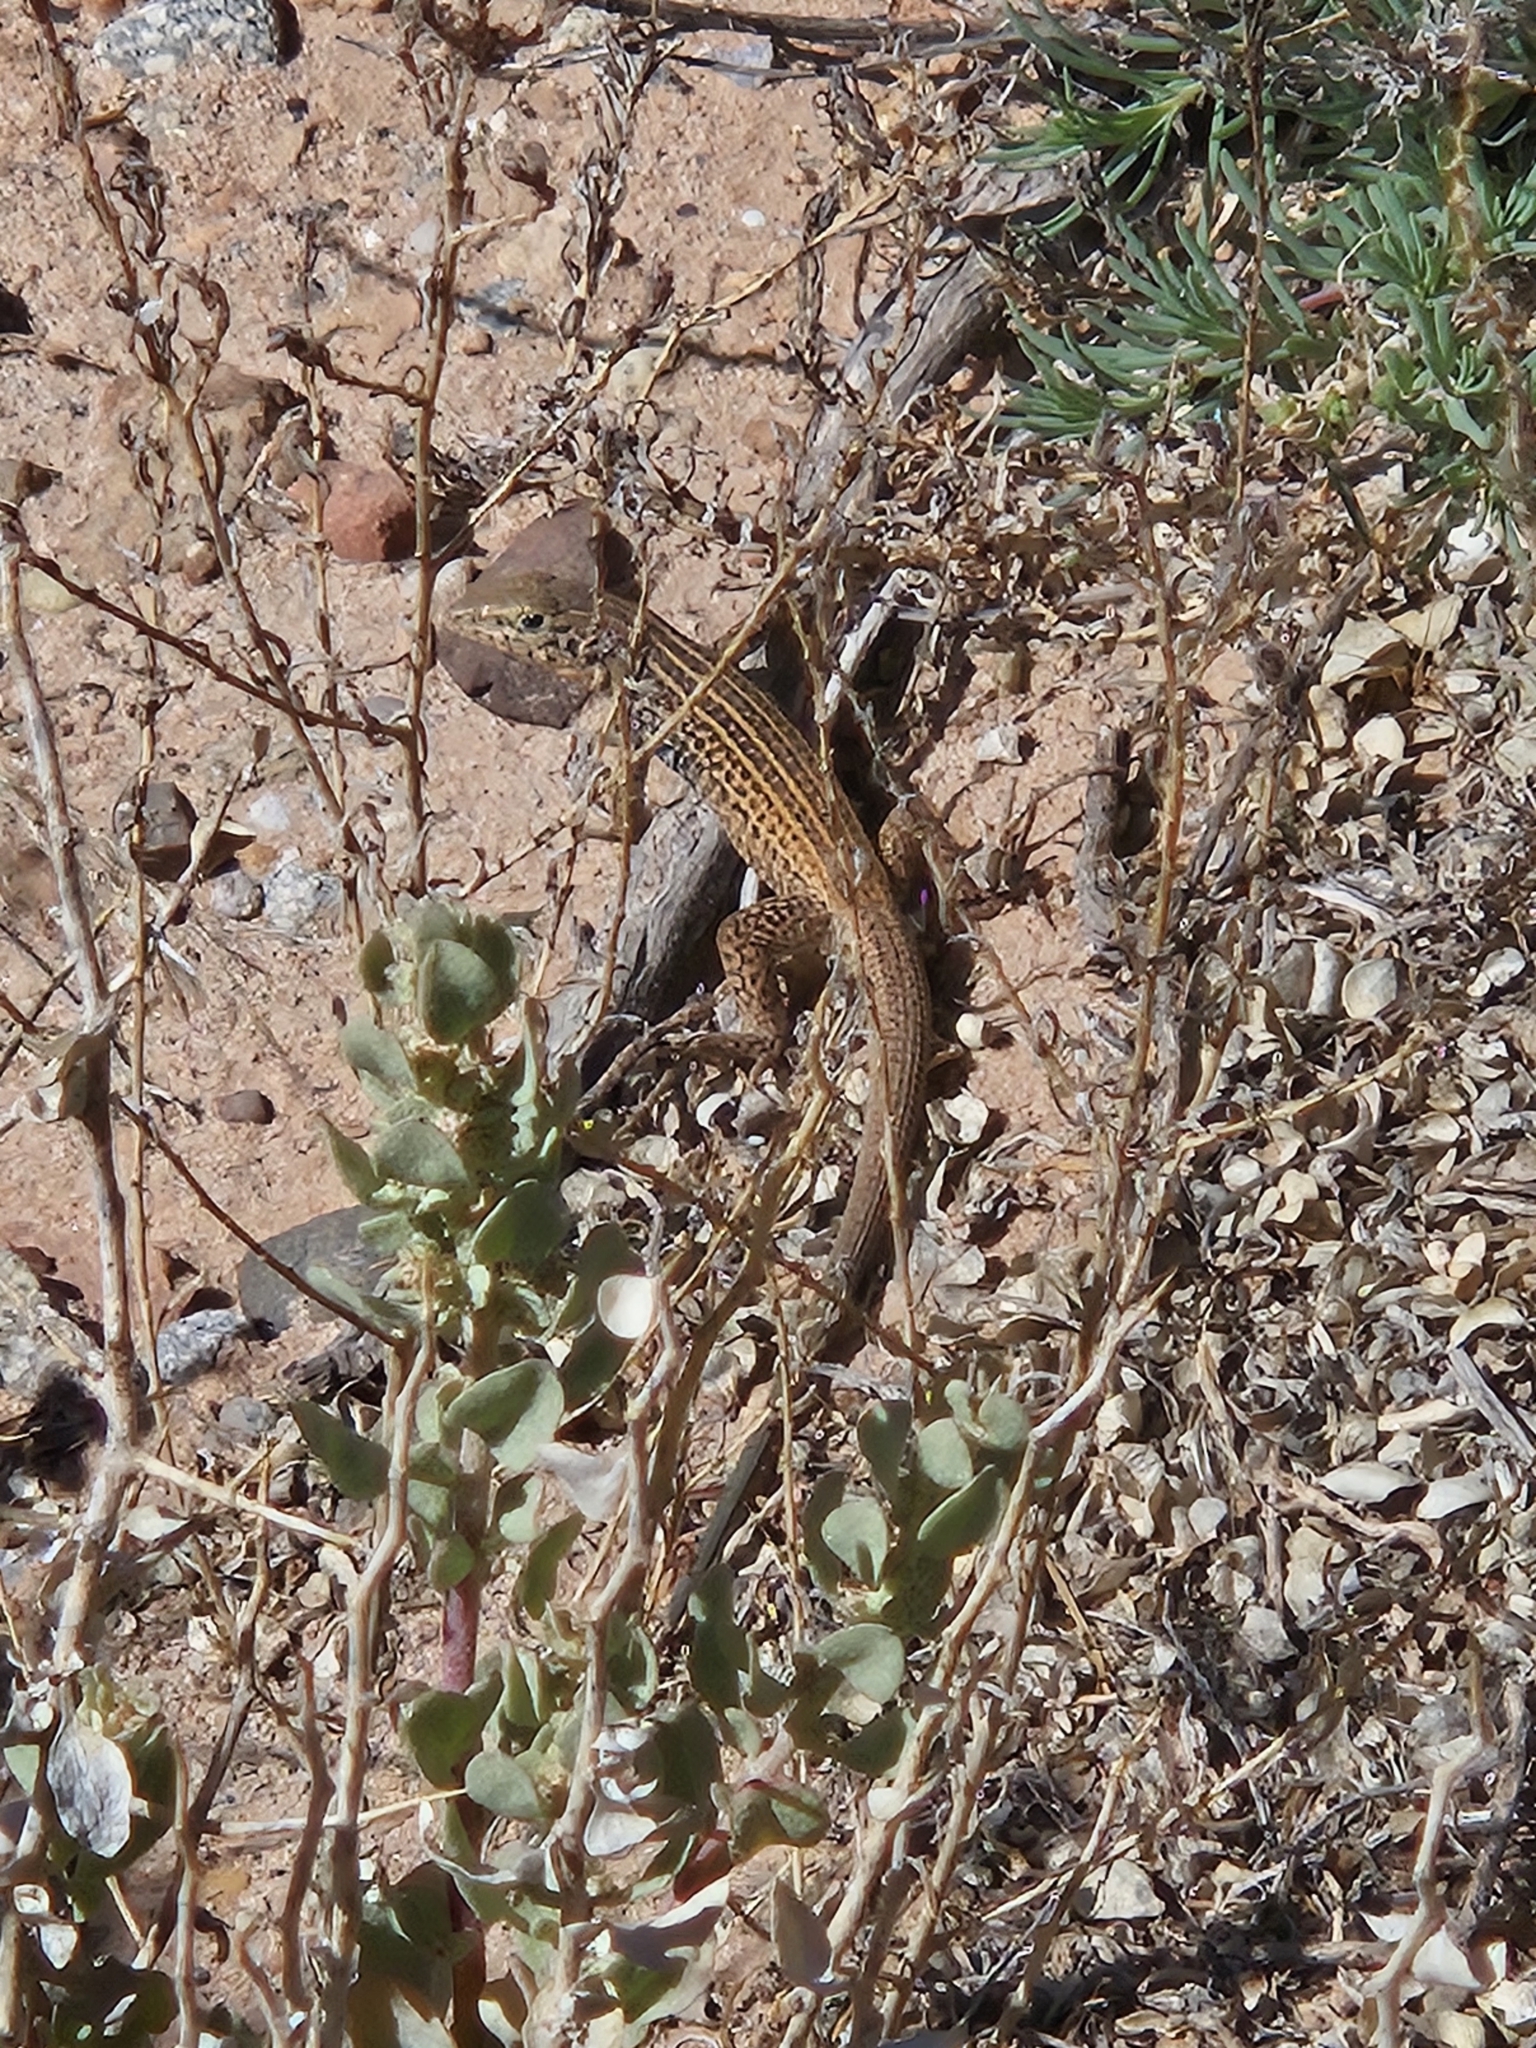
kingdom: Animalia
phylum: Chordata
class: Squamata
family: Teiidae
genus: Aspidoscelis
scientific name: Aspidoscelis tigris
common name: Tiger whiptail
